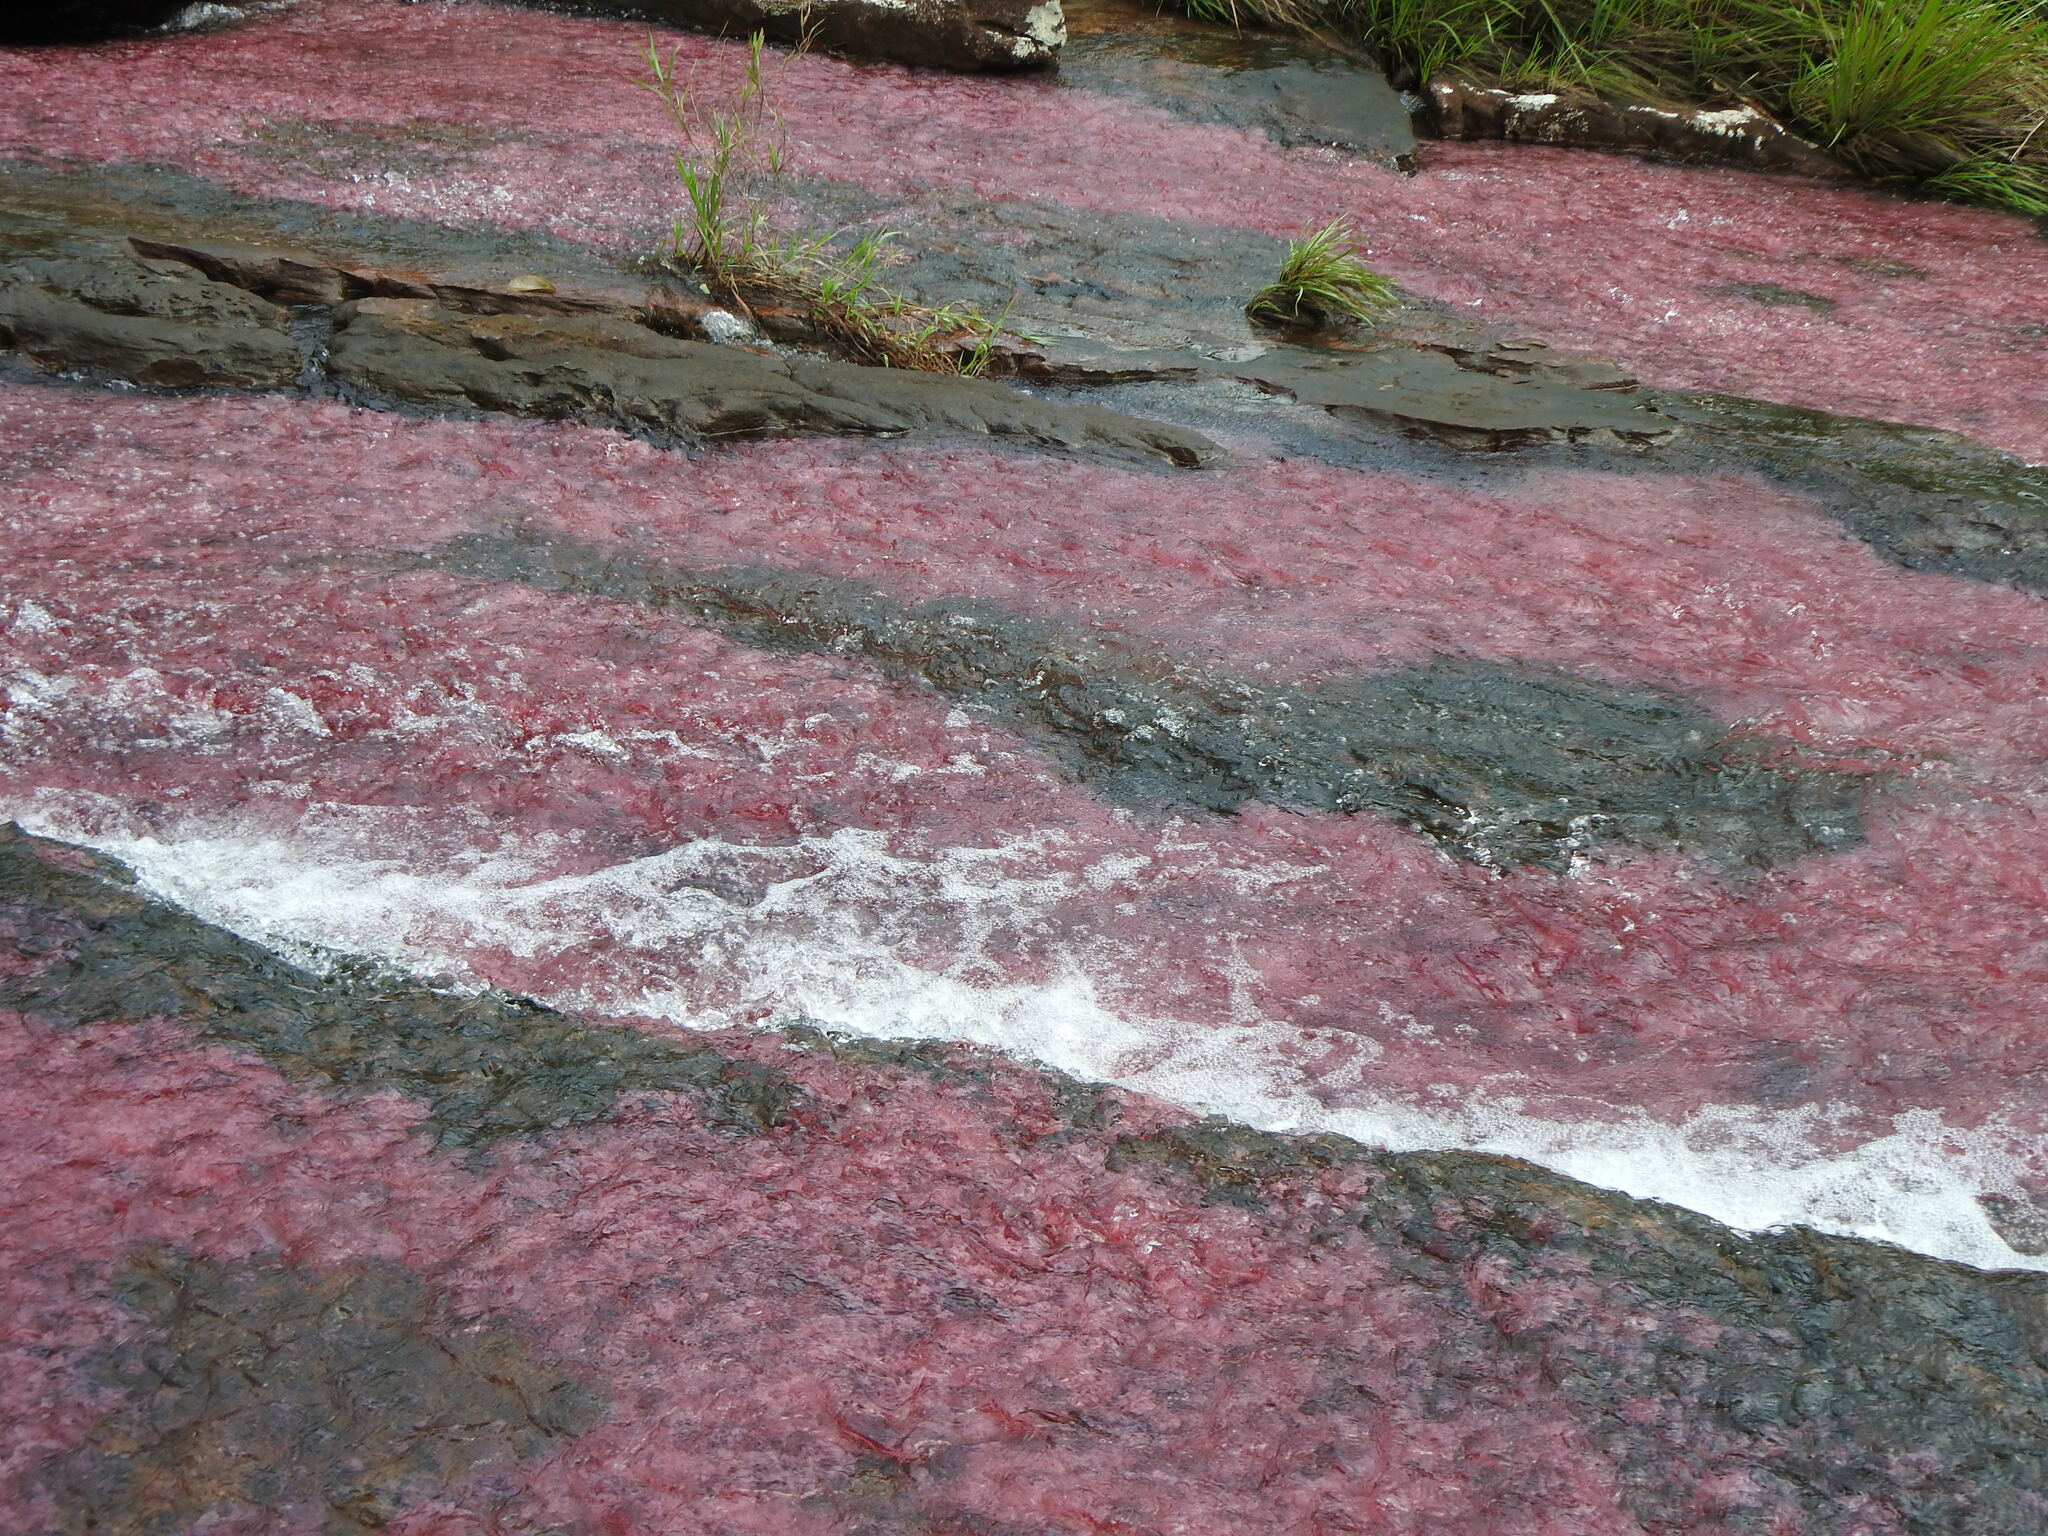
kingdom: Plantae
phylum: Tracheophyta
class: Magnoliopsida
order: Malpighiales
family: Podostemaceae
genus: Rhyncholacis
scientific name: Rhyncholacis clavigera
